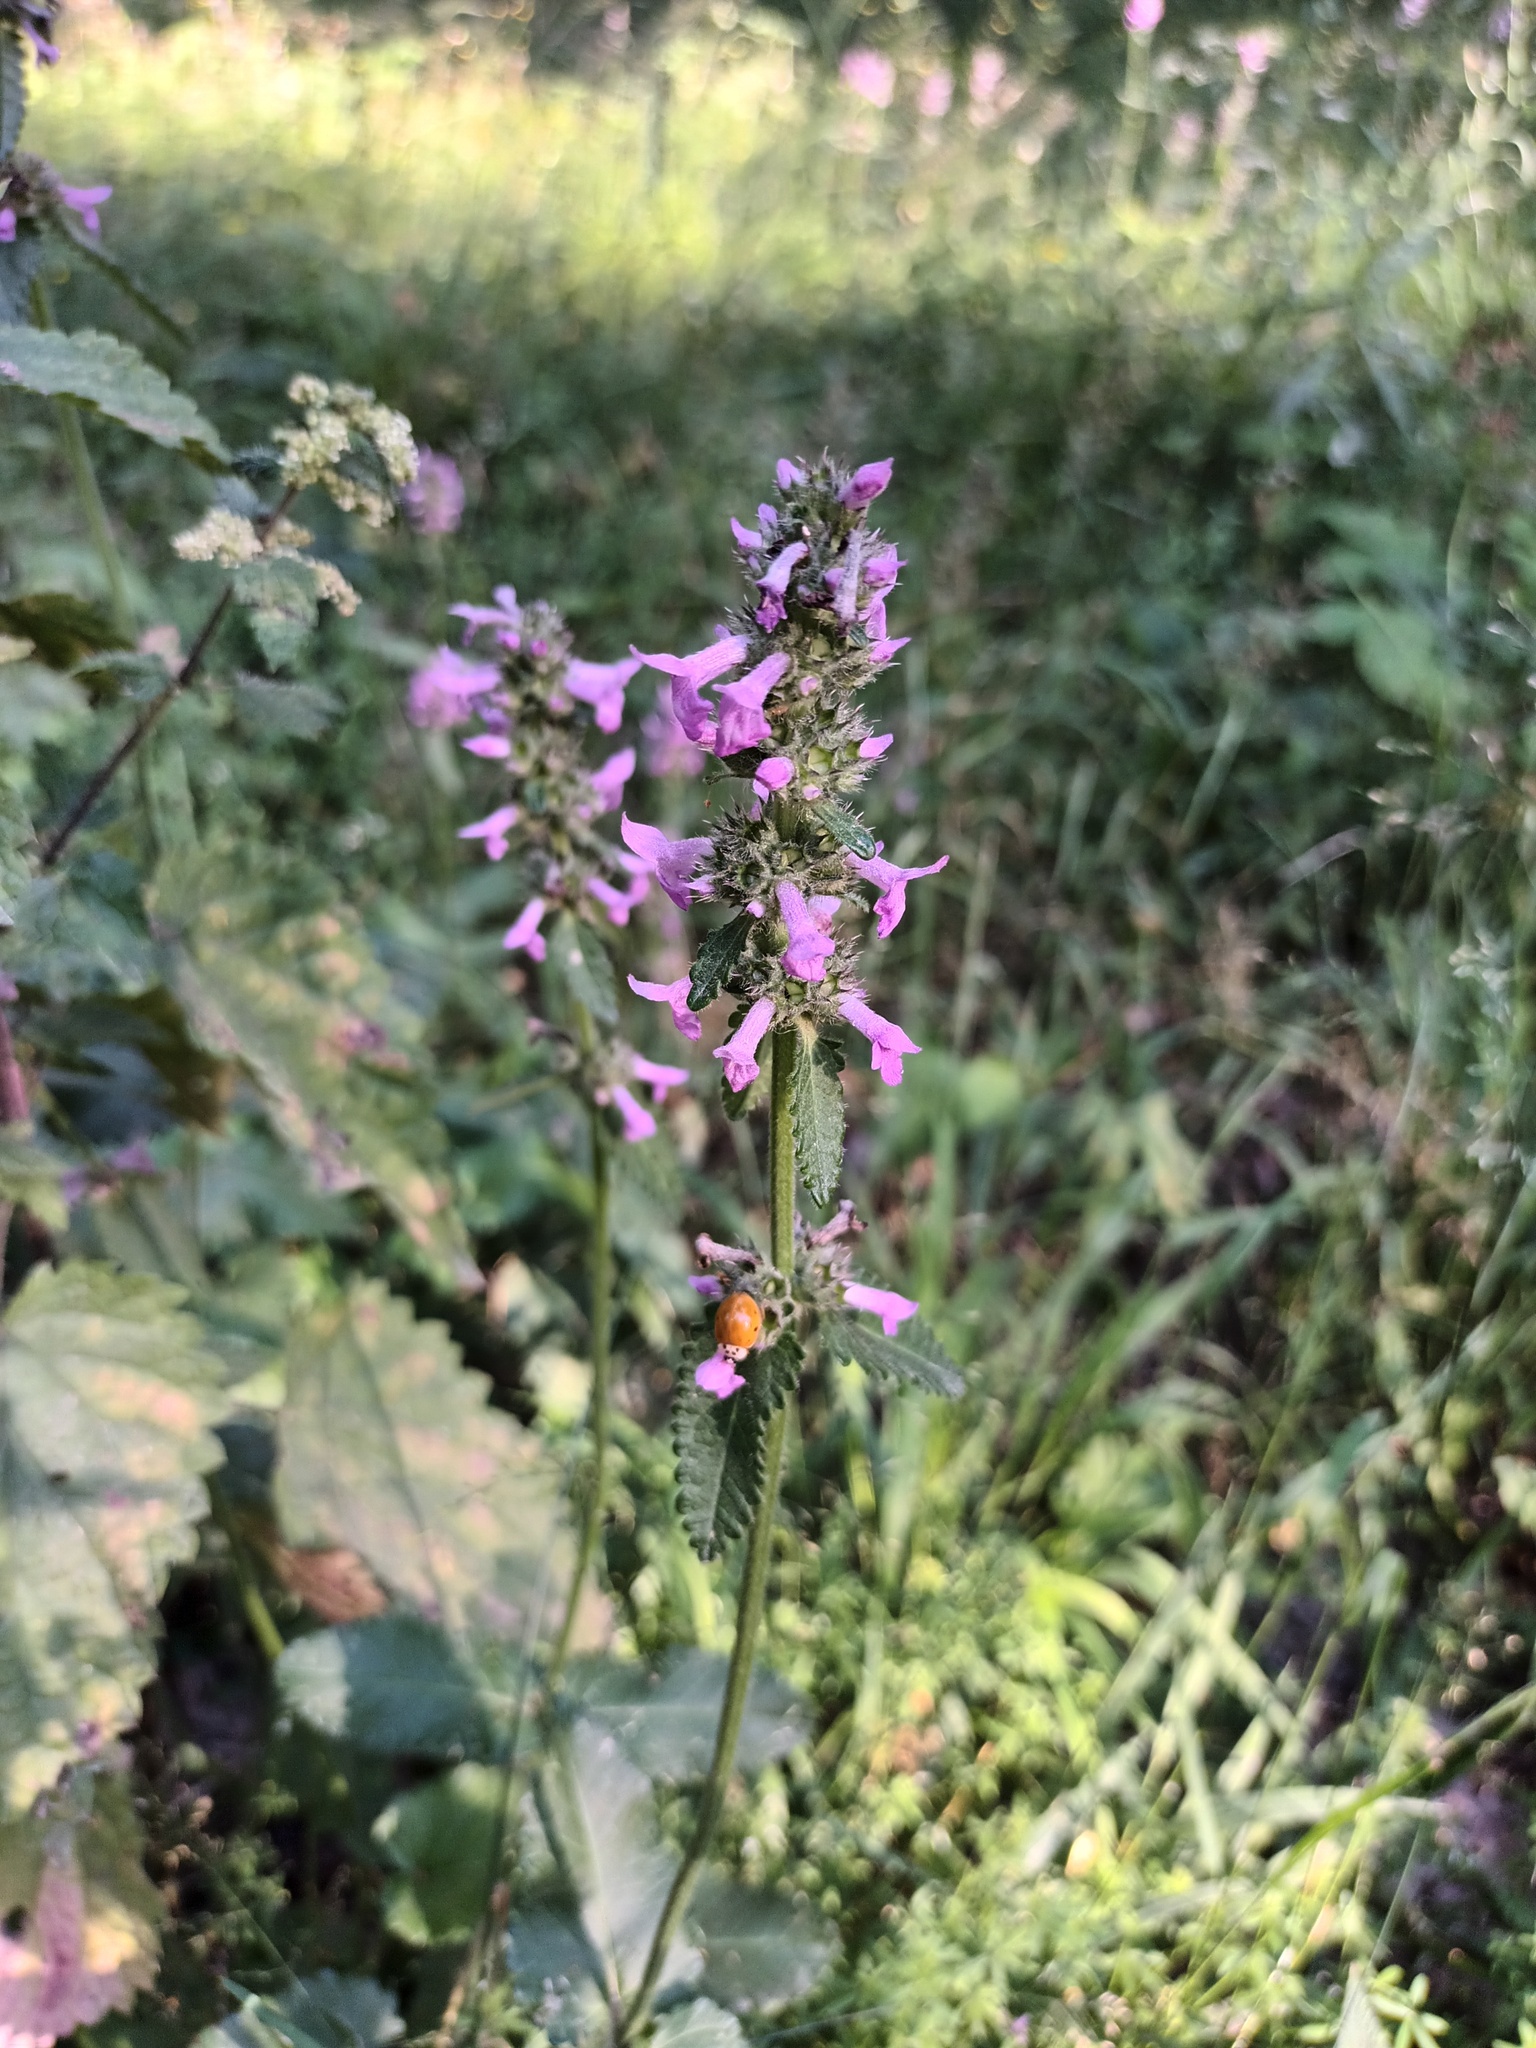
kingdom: Plantae
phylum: Tracheophyta
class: Magnoliopsida
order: Lamiales
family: Lamiaceae
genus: Betonica
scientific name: Betonica officinalis
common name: Bishop's-wort
